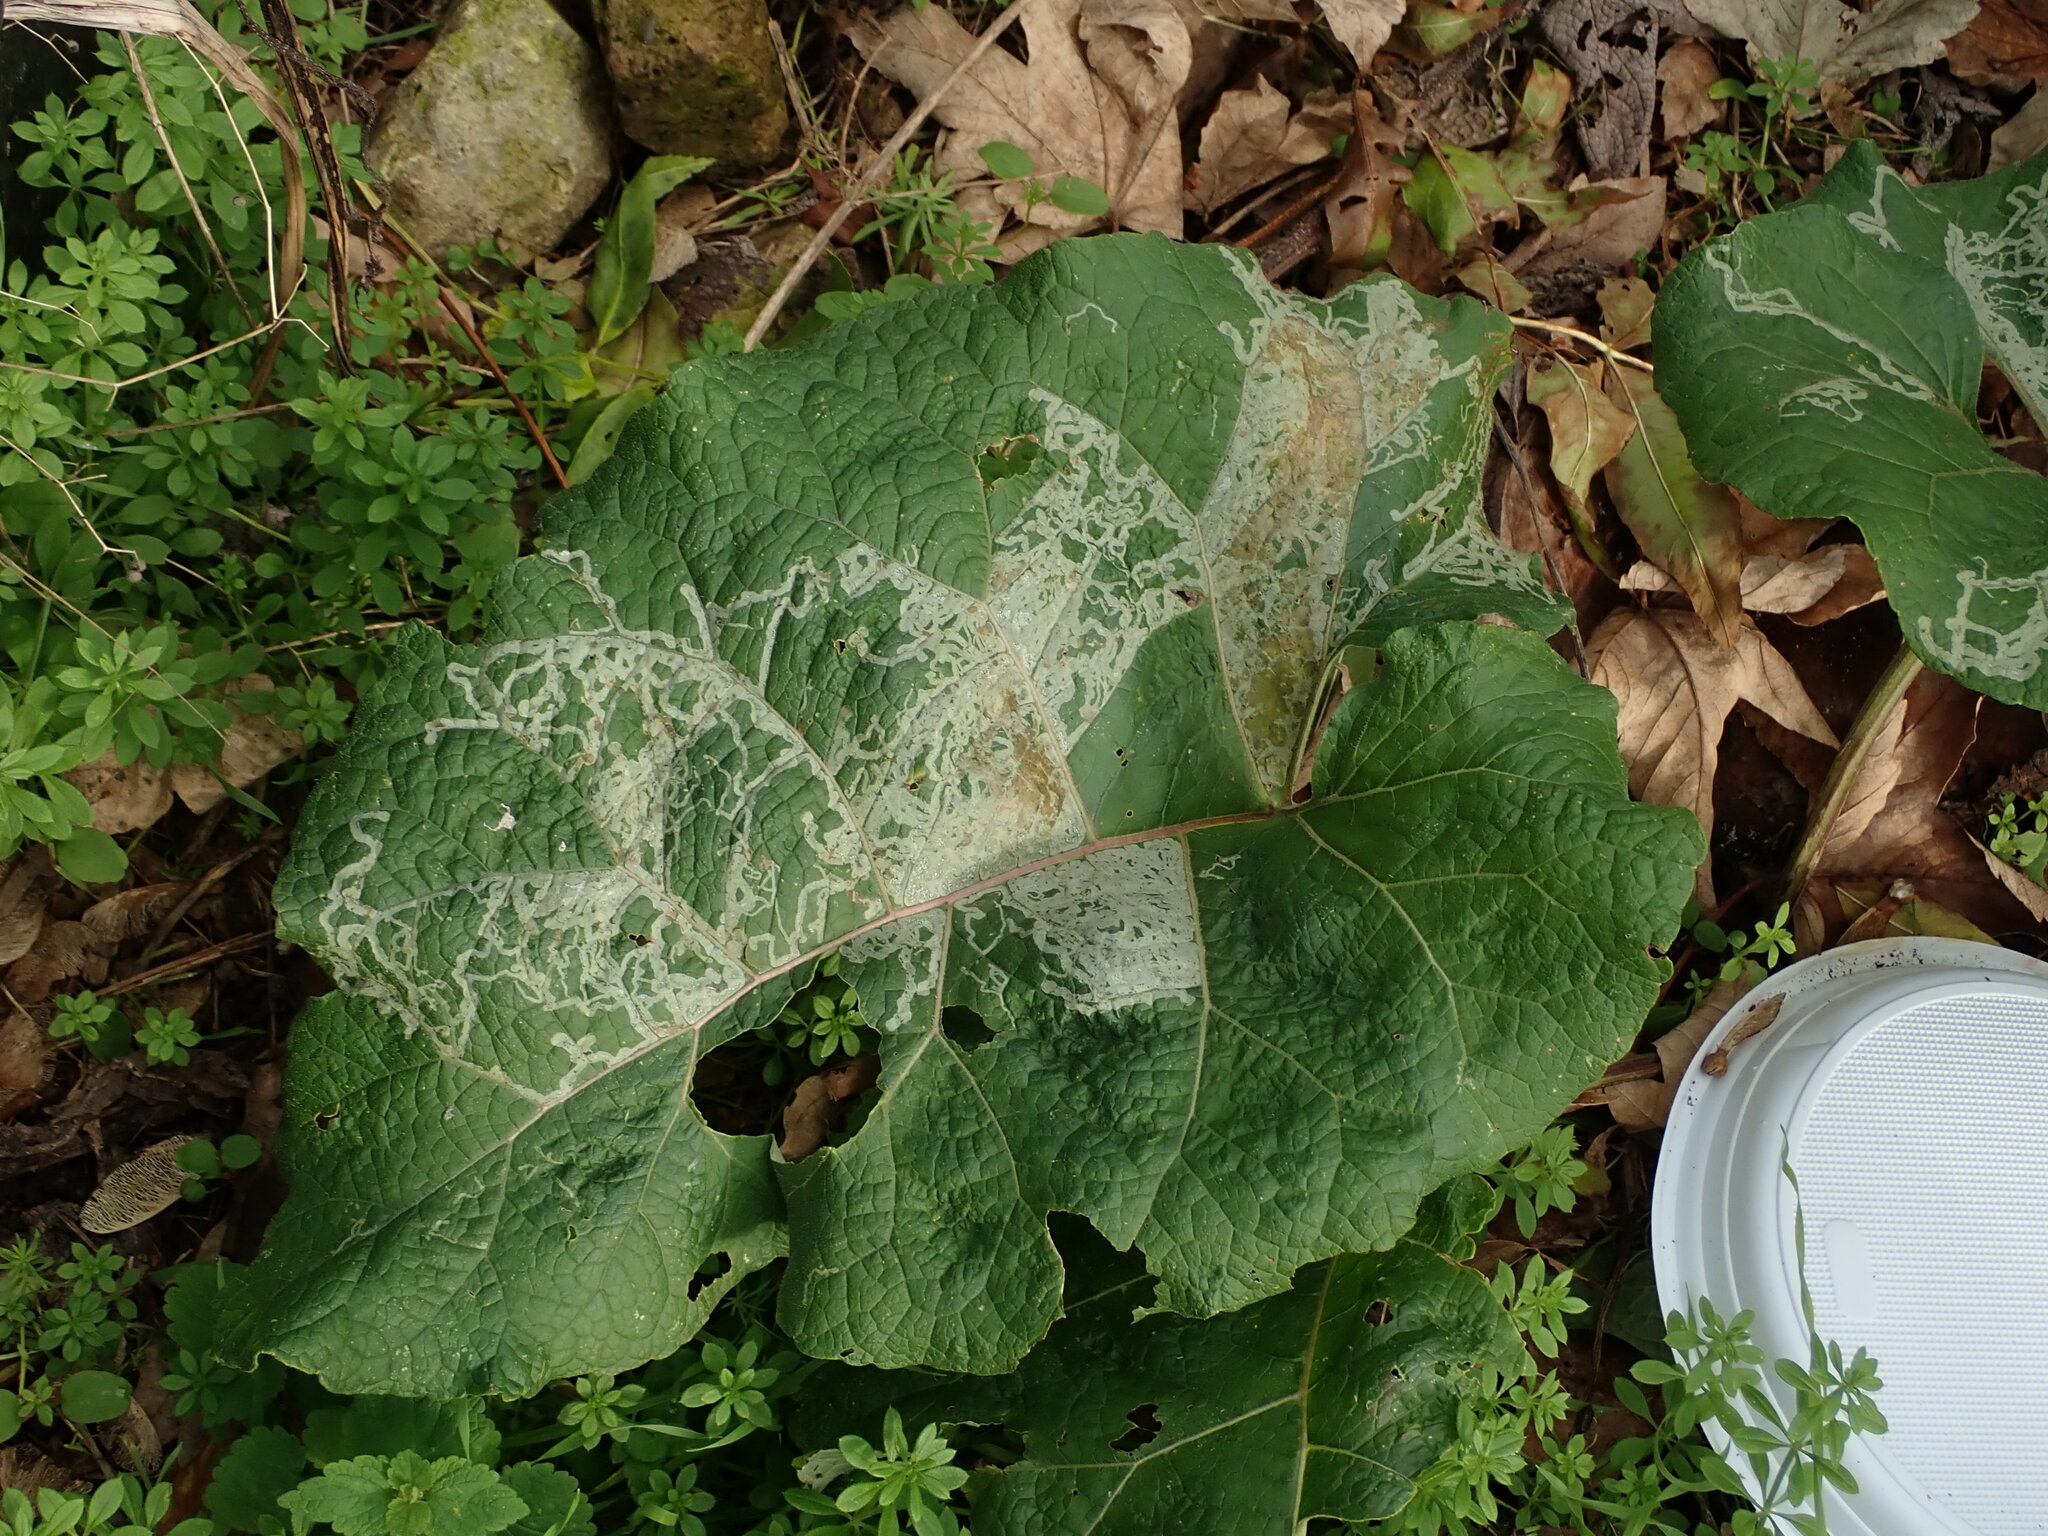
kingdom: Animalia
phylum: Arthropoda
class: Insecta
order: Diptera
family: Agromyzidae
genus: Phytomyza
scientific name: Phytomyza lappae
